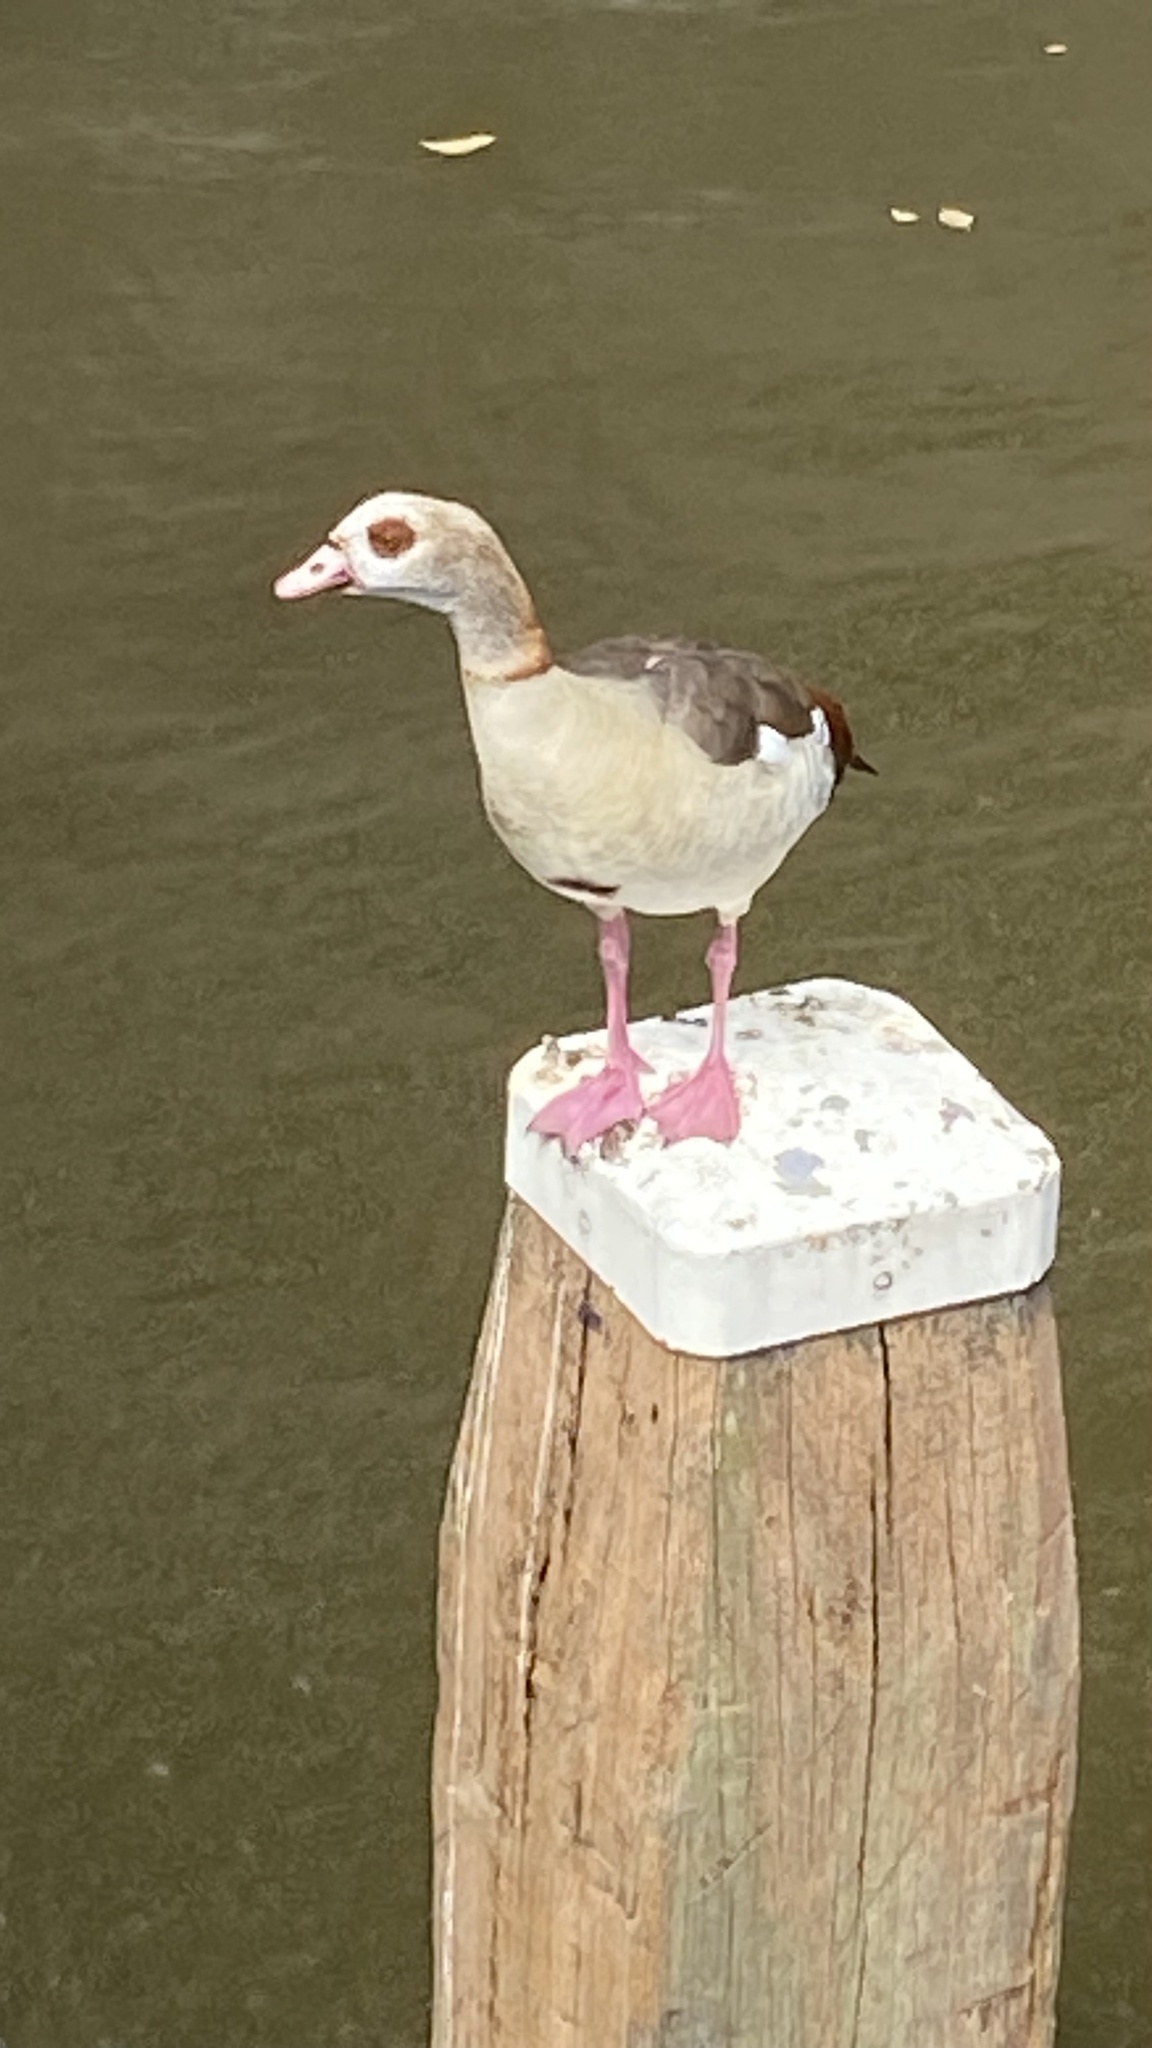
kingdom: Animalia
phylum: Chordata
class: Aves
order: Anseriformes
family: Anatidae
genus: Alopochen
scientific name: Alopochen aegyptiaca
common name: Egyptian goose
